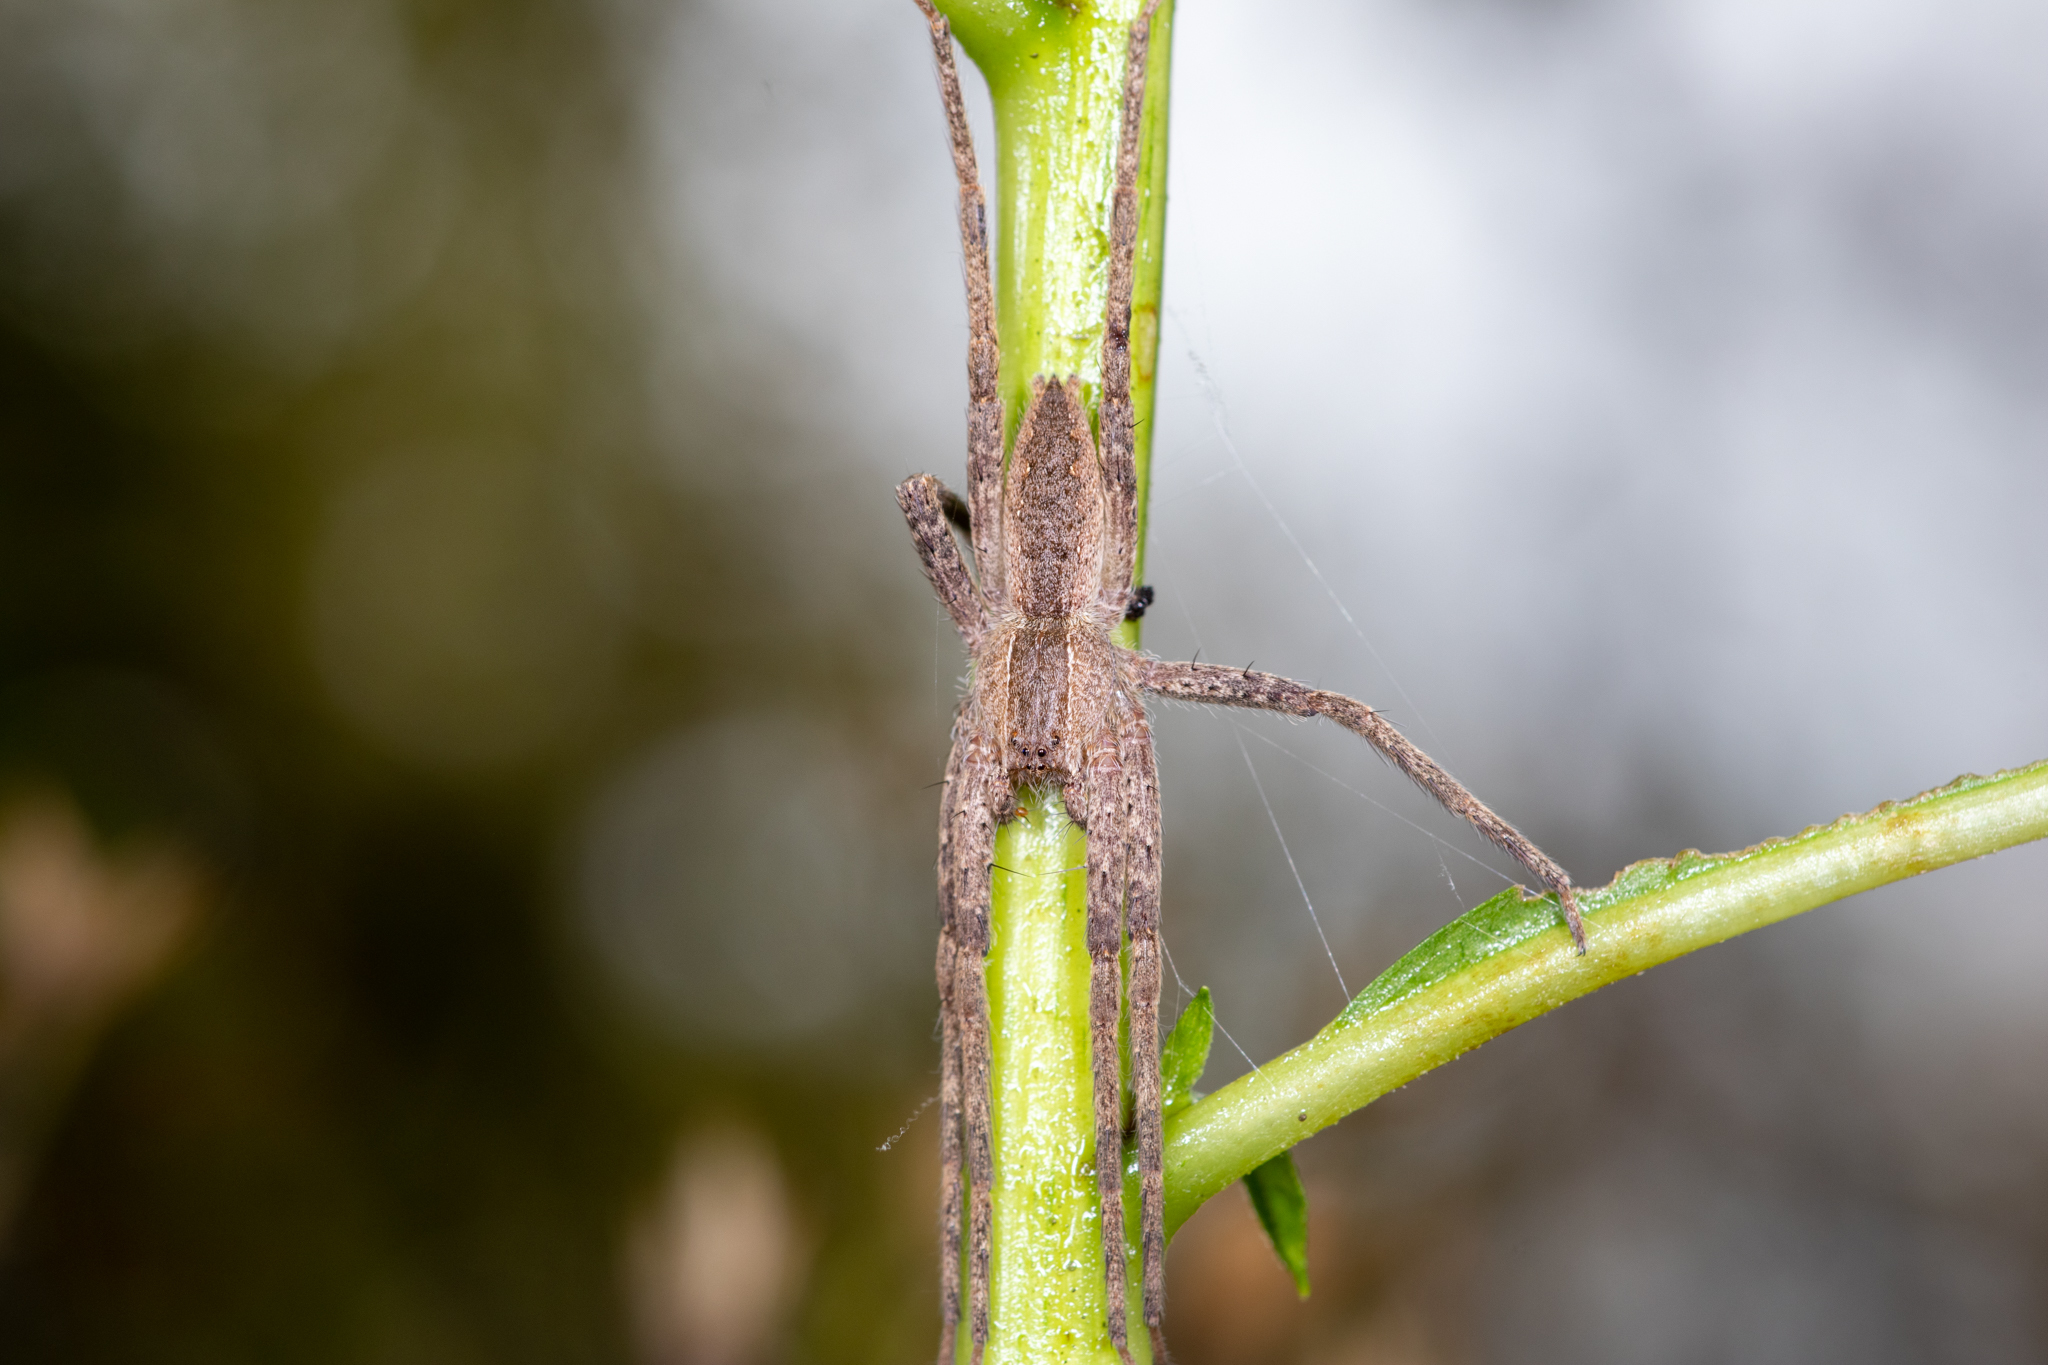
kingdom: Animalia
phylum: Arthropoda
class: Arachnida
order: Araneae
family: Pisauridae
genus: Pisaurina
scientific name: Pisaurina mira
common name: American nursery web spider
